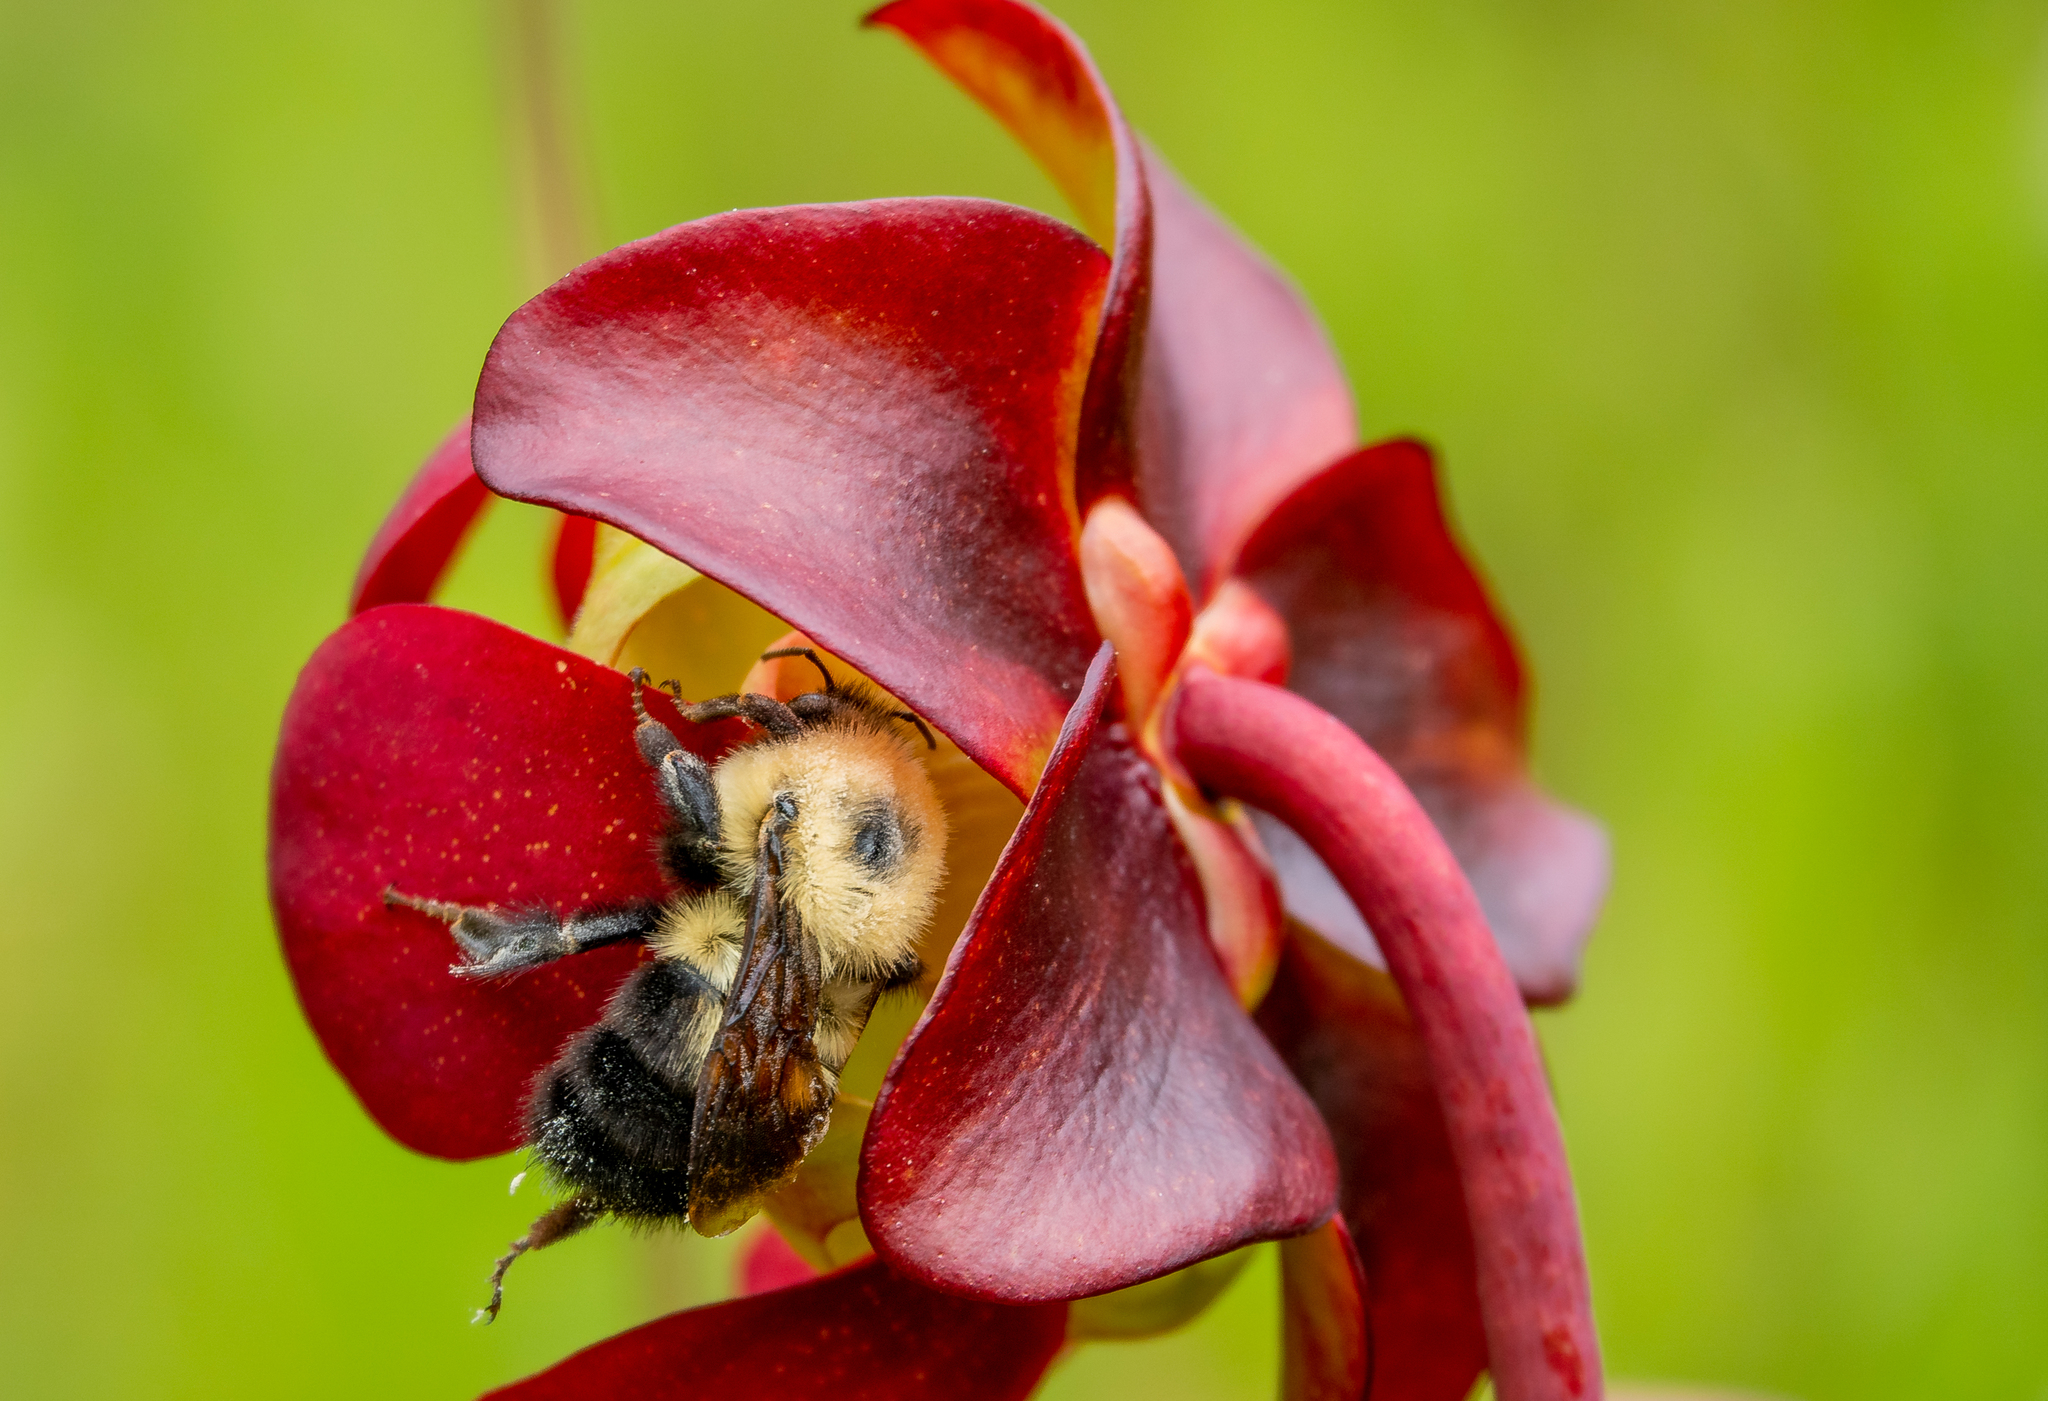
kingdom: Animalia
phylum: Arthropoda
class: Insecta
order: Hymenoptera
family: Apidae
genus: Bombus
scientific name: Bombus bimaculatus
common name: Two-spotted bumble bee
